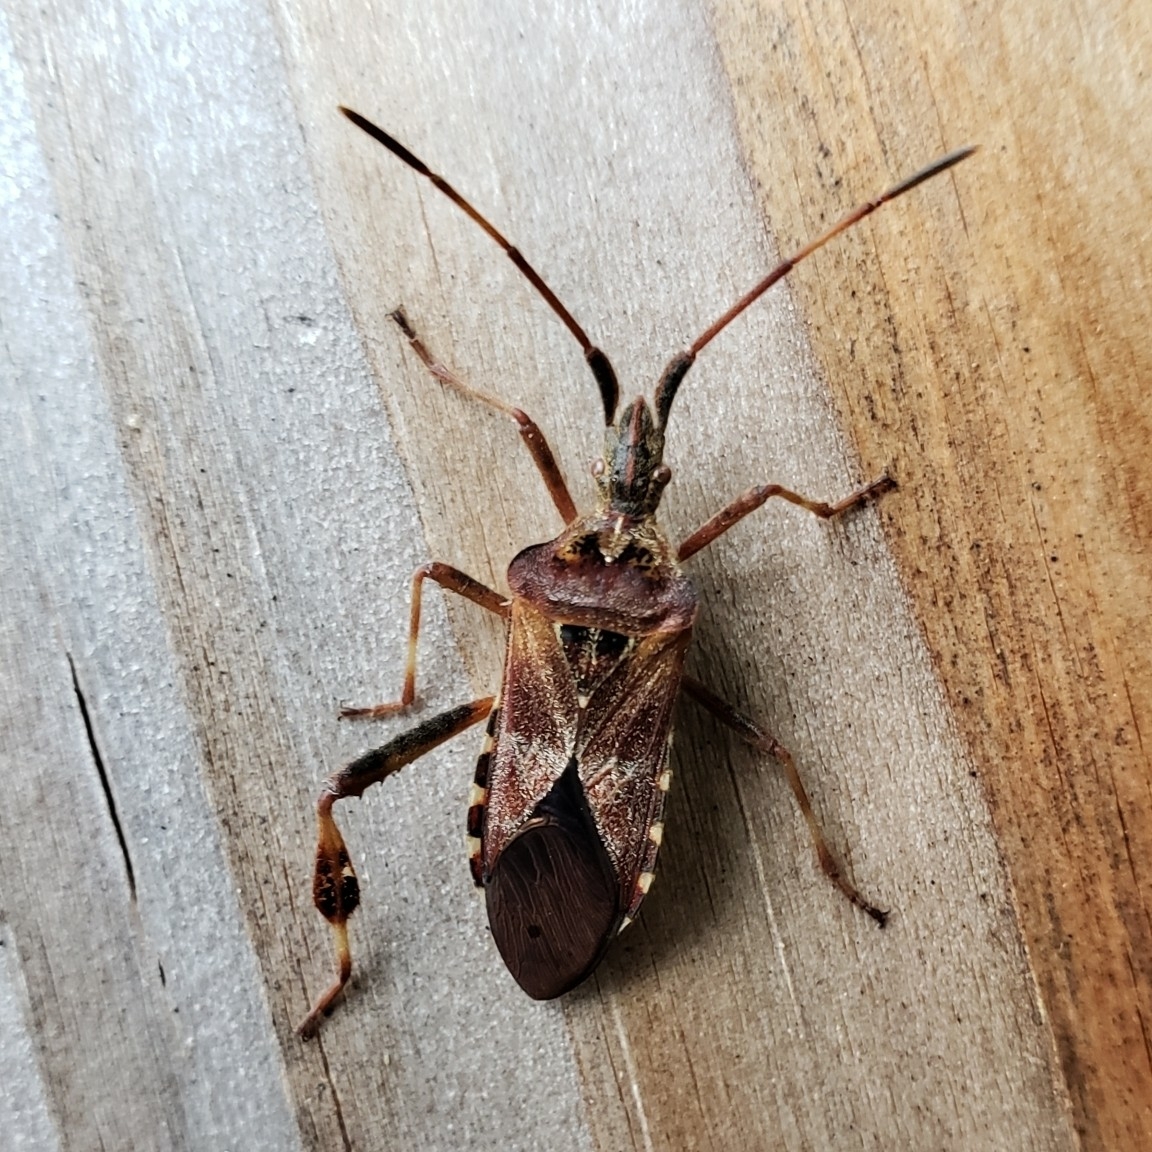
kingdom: Animalia
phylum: Arthropoda
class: Insecta
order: Hemiptera
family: Coreidae
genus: Leptoglossus
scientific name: Leptoglossus occidentalis
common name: Western conifer-seed bug
